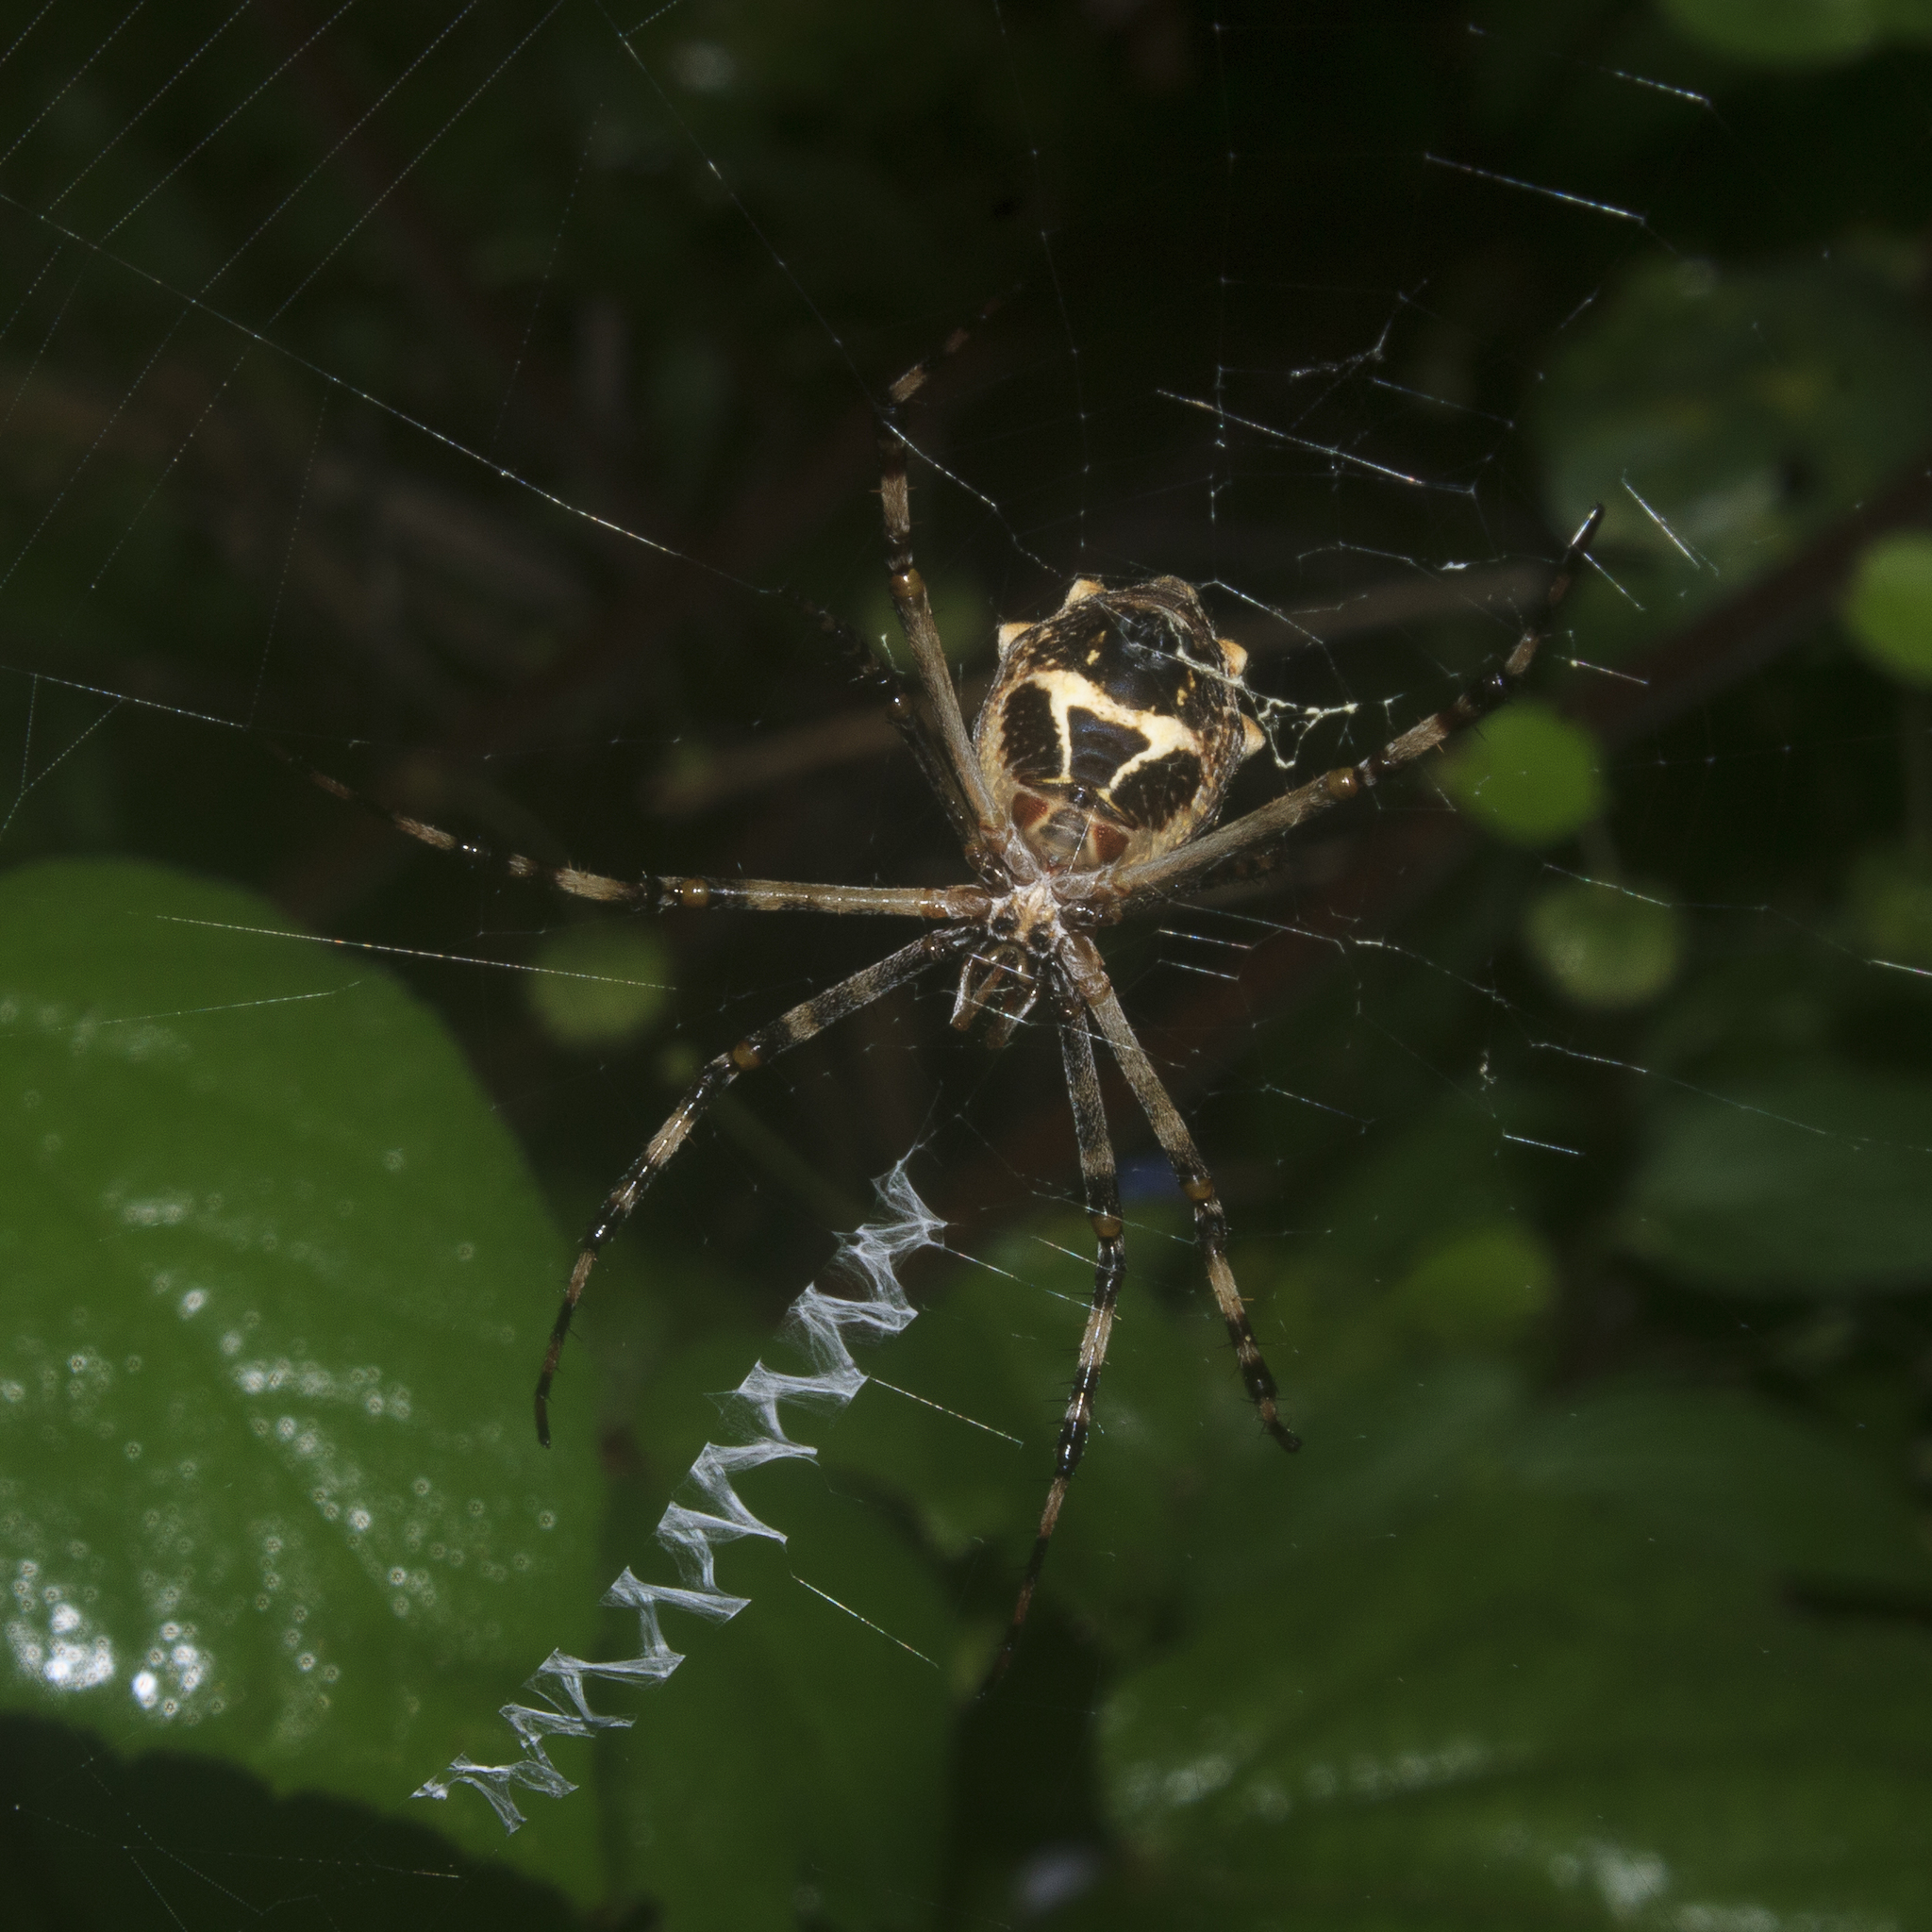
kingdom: Animalia
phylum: Arthropoda
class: Arachnida
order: Araneae
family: Araneidae
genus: Argiope
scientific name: Argiope argentata
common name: Orb weavers
